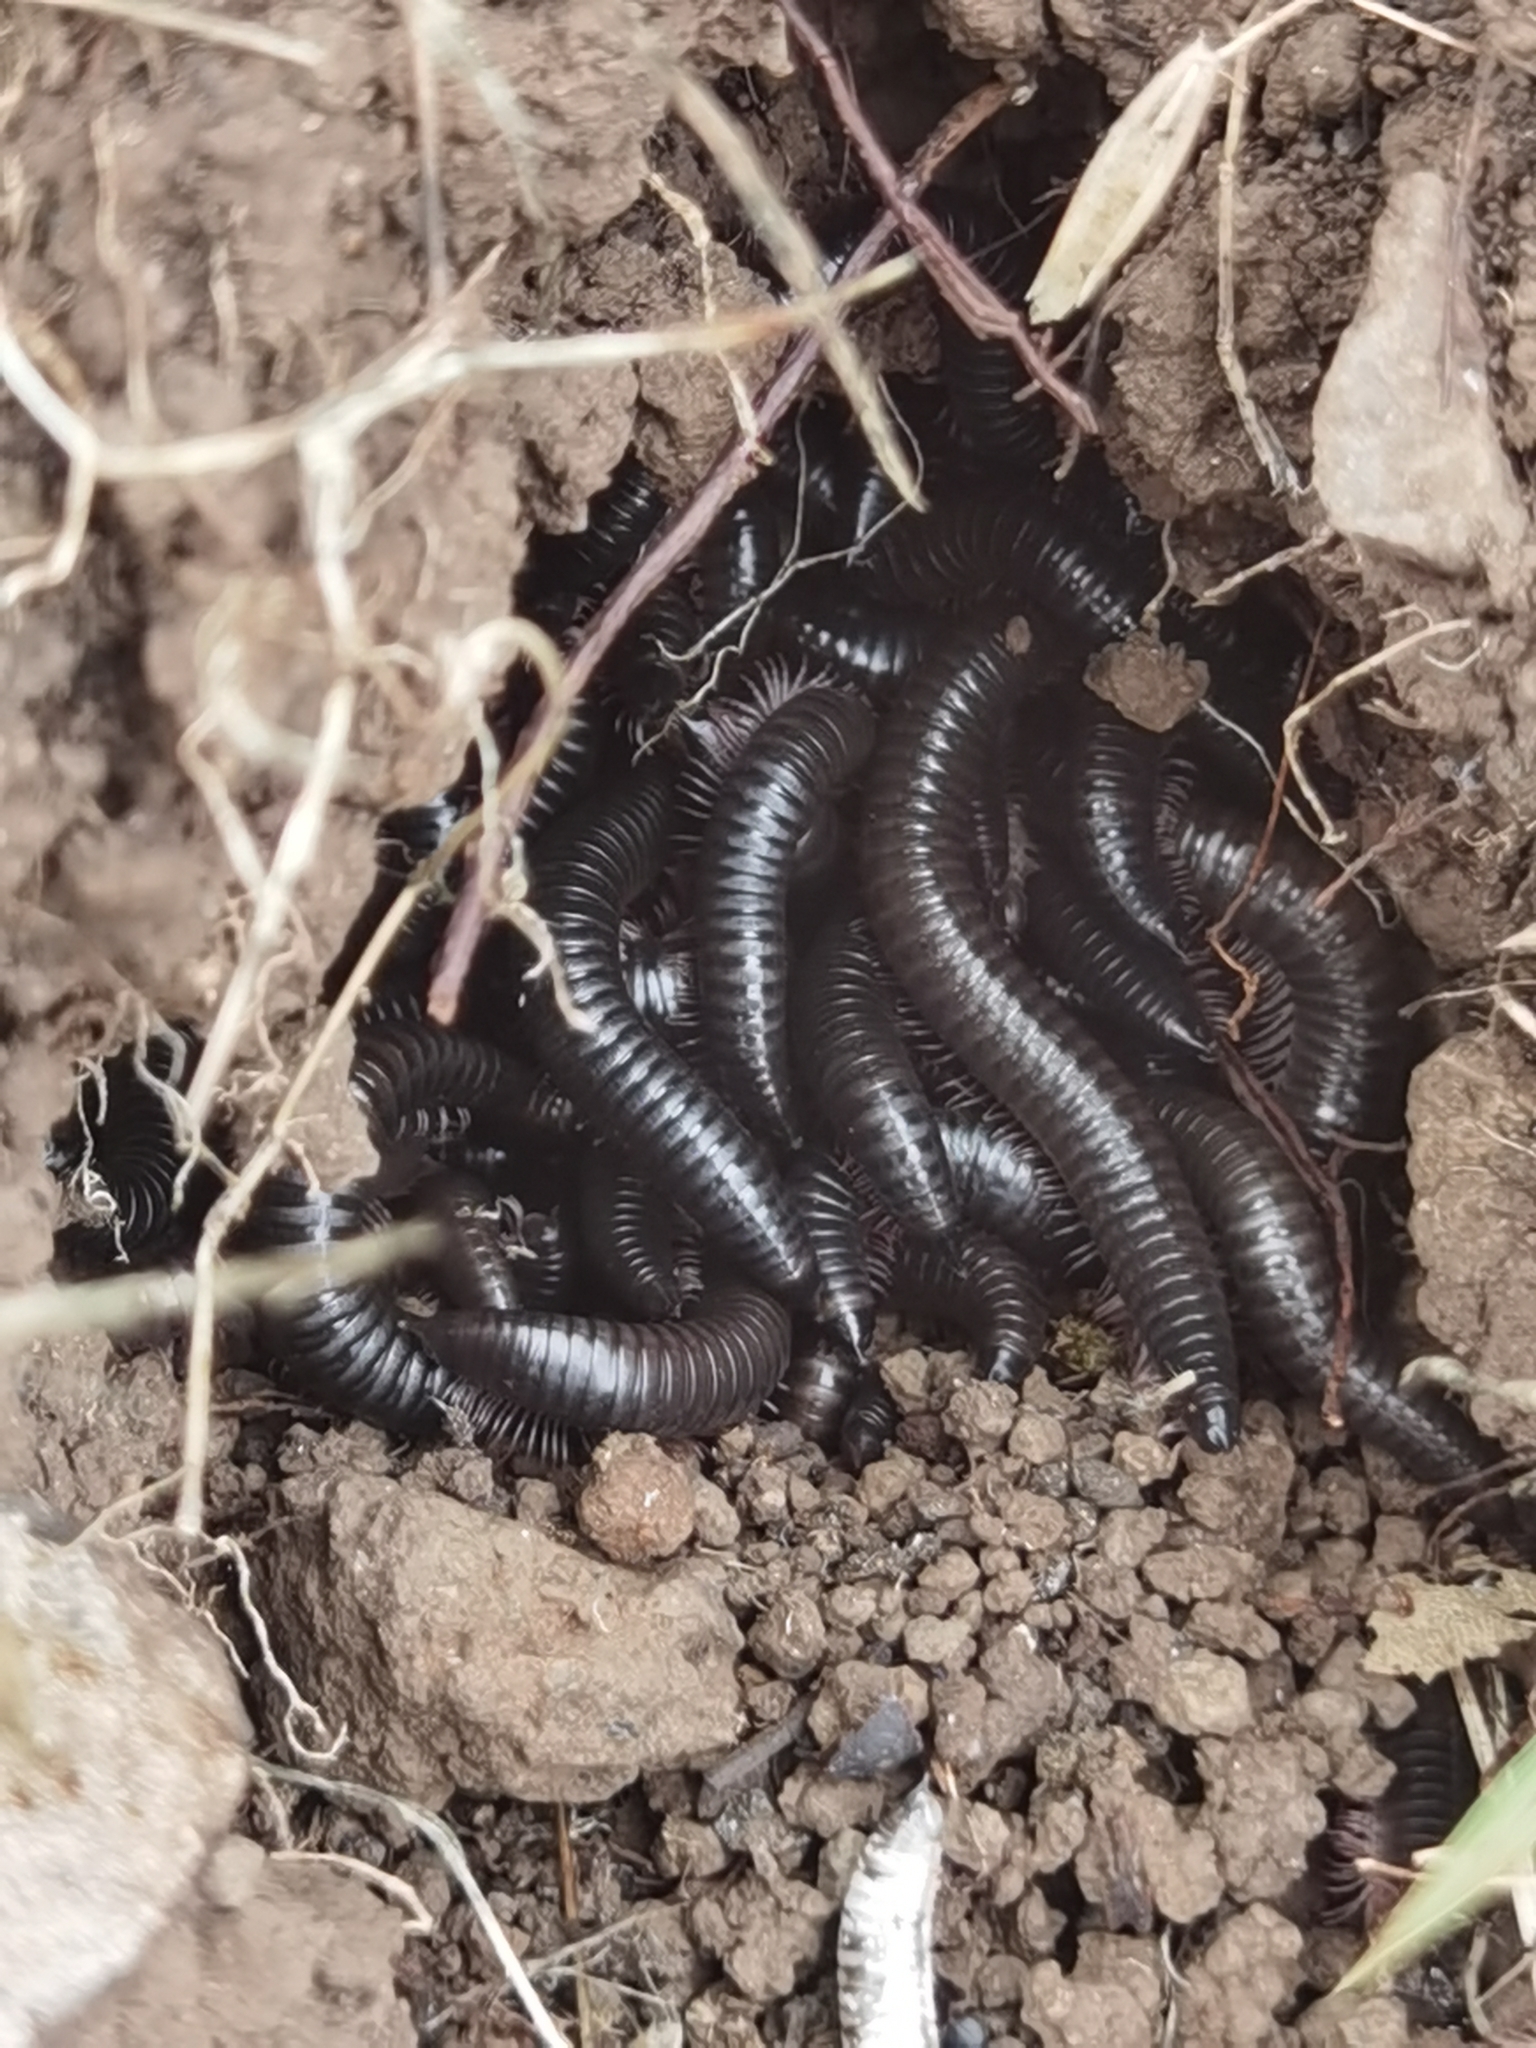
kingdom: Animalia
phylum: Arthropoda
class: Diplopoda
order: Julida
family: Julidae
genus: Ommatoiulus
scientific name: Ommatoiulus moreleti
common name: Portuguese millipede
